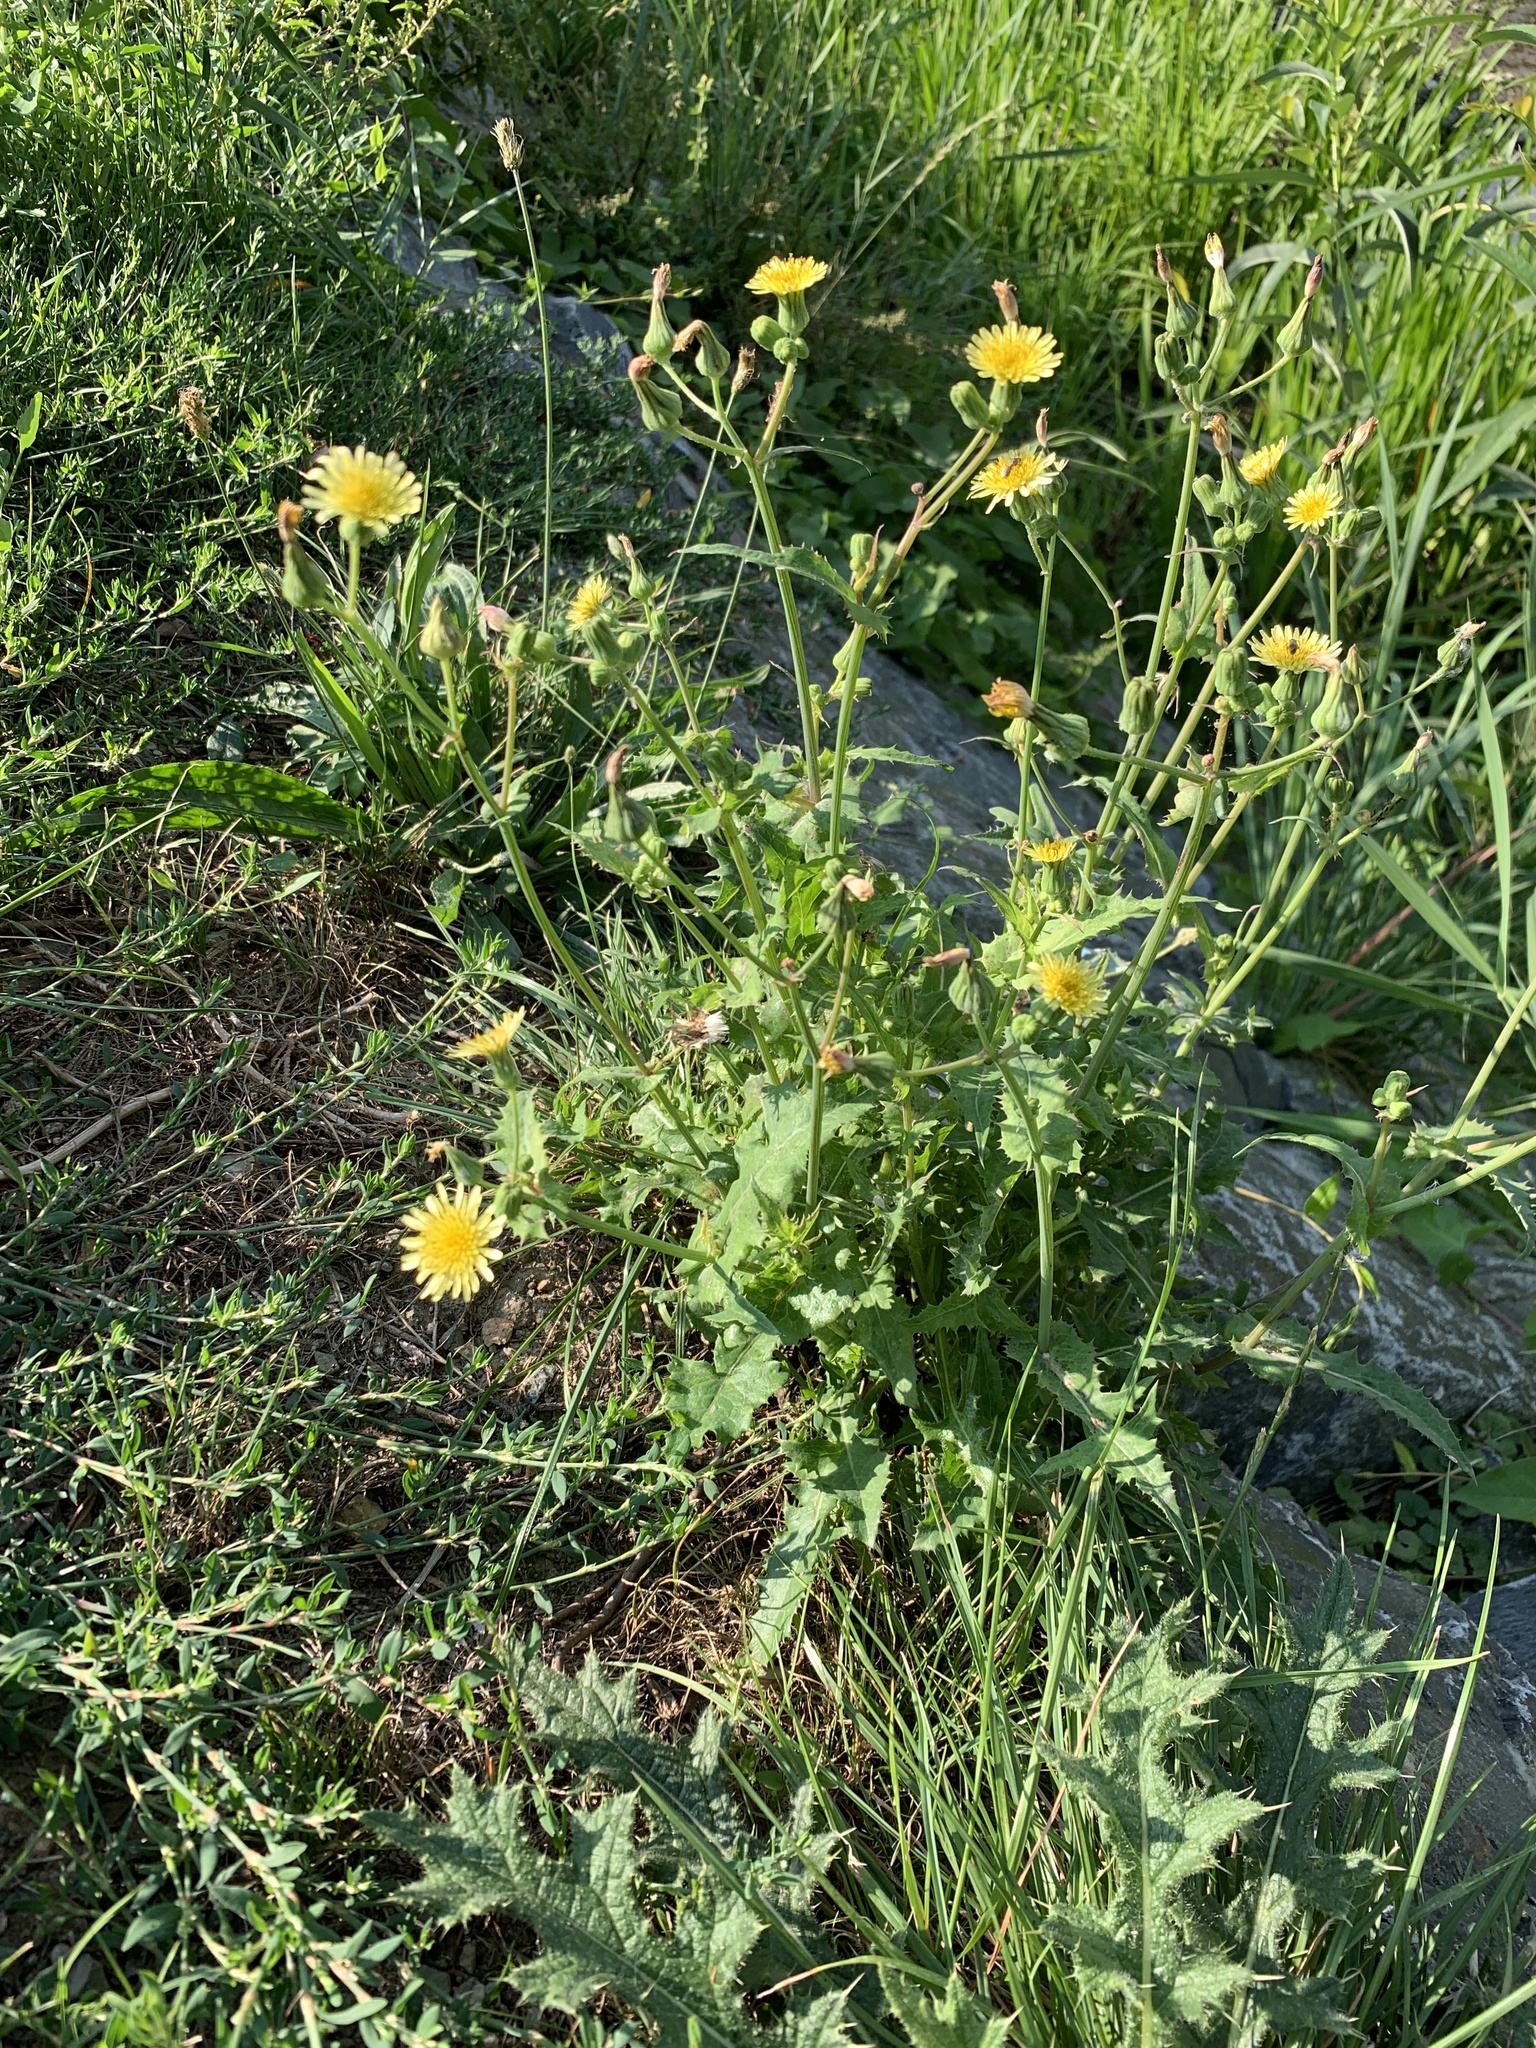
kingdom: Plantae
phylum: Tracheophyta
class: Magnoliopsida
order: Asterales
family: Asteraceae
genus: Sonchus
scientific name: Sonchus oleraceus
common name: Common sowthistle
